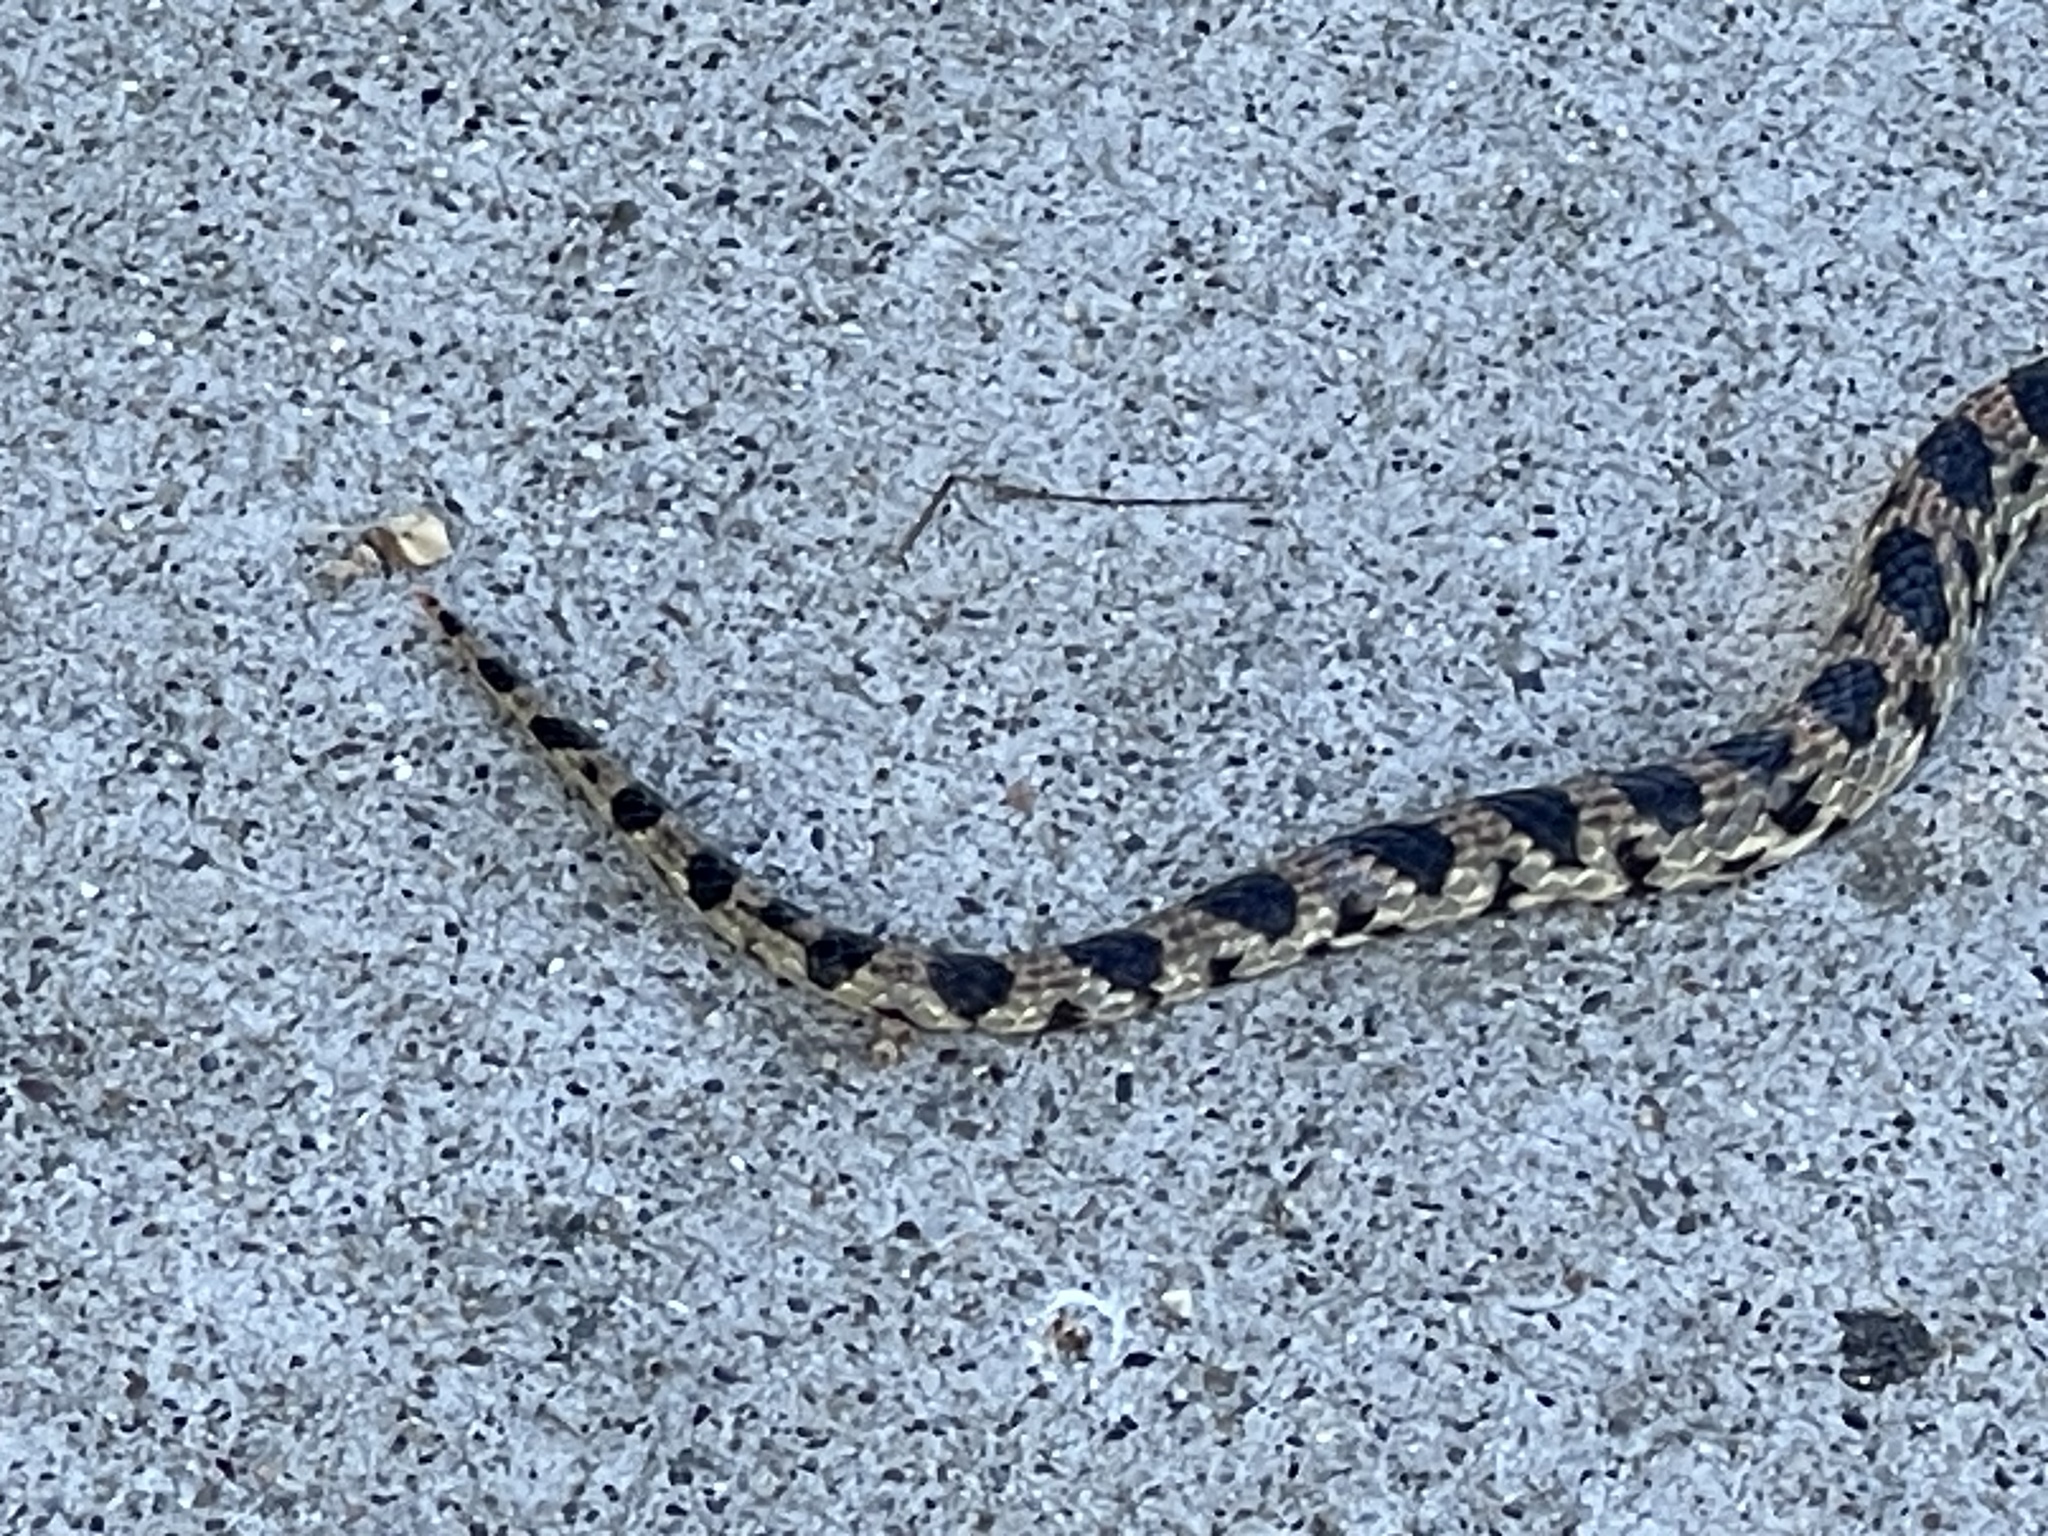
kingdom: Animalia
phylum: Chordata
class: Squamata
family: Colubridae
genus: Pituophis
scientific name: Pituophis catenifer
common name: Gopher snake
